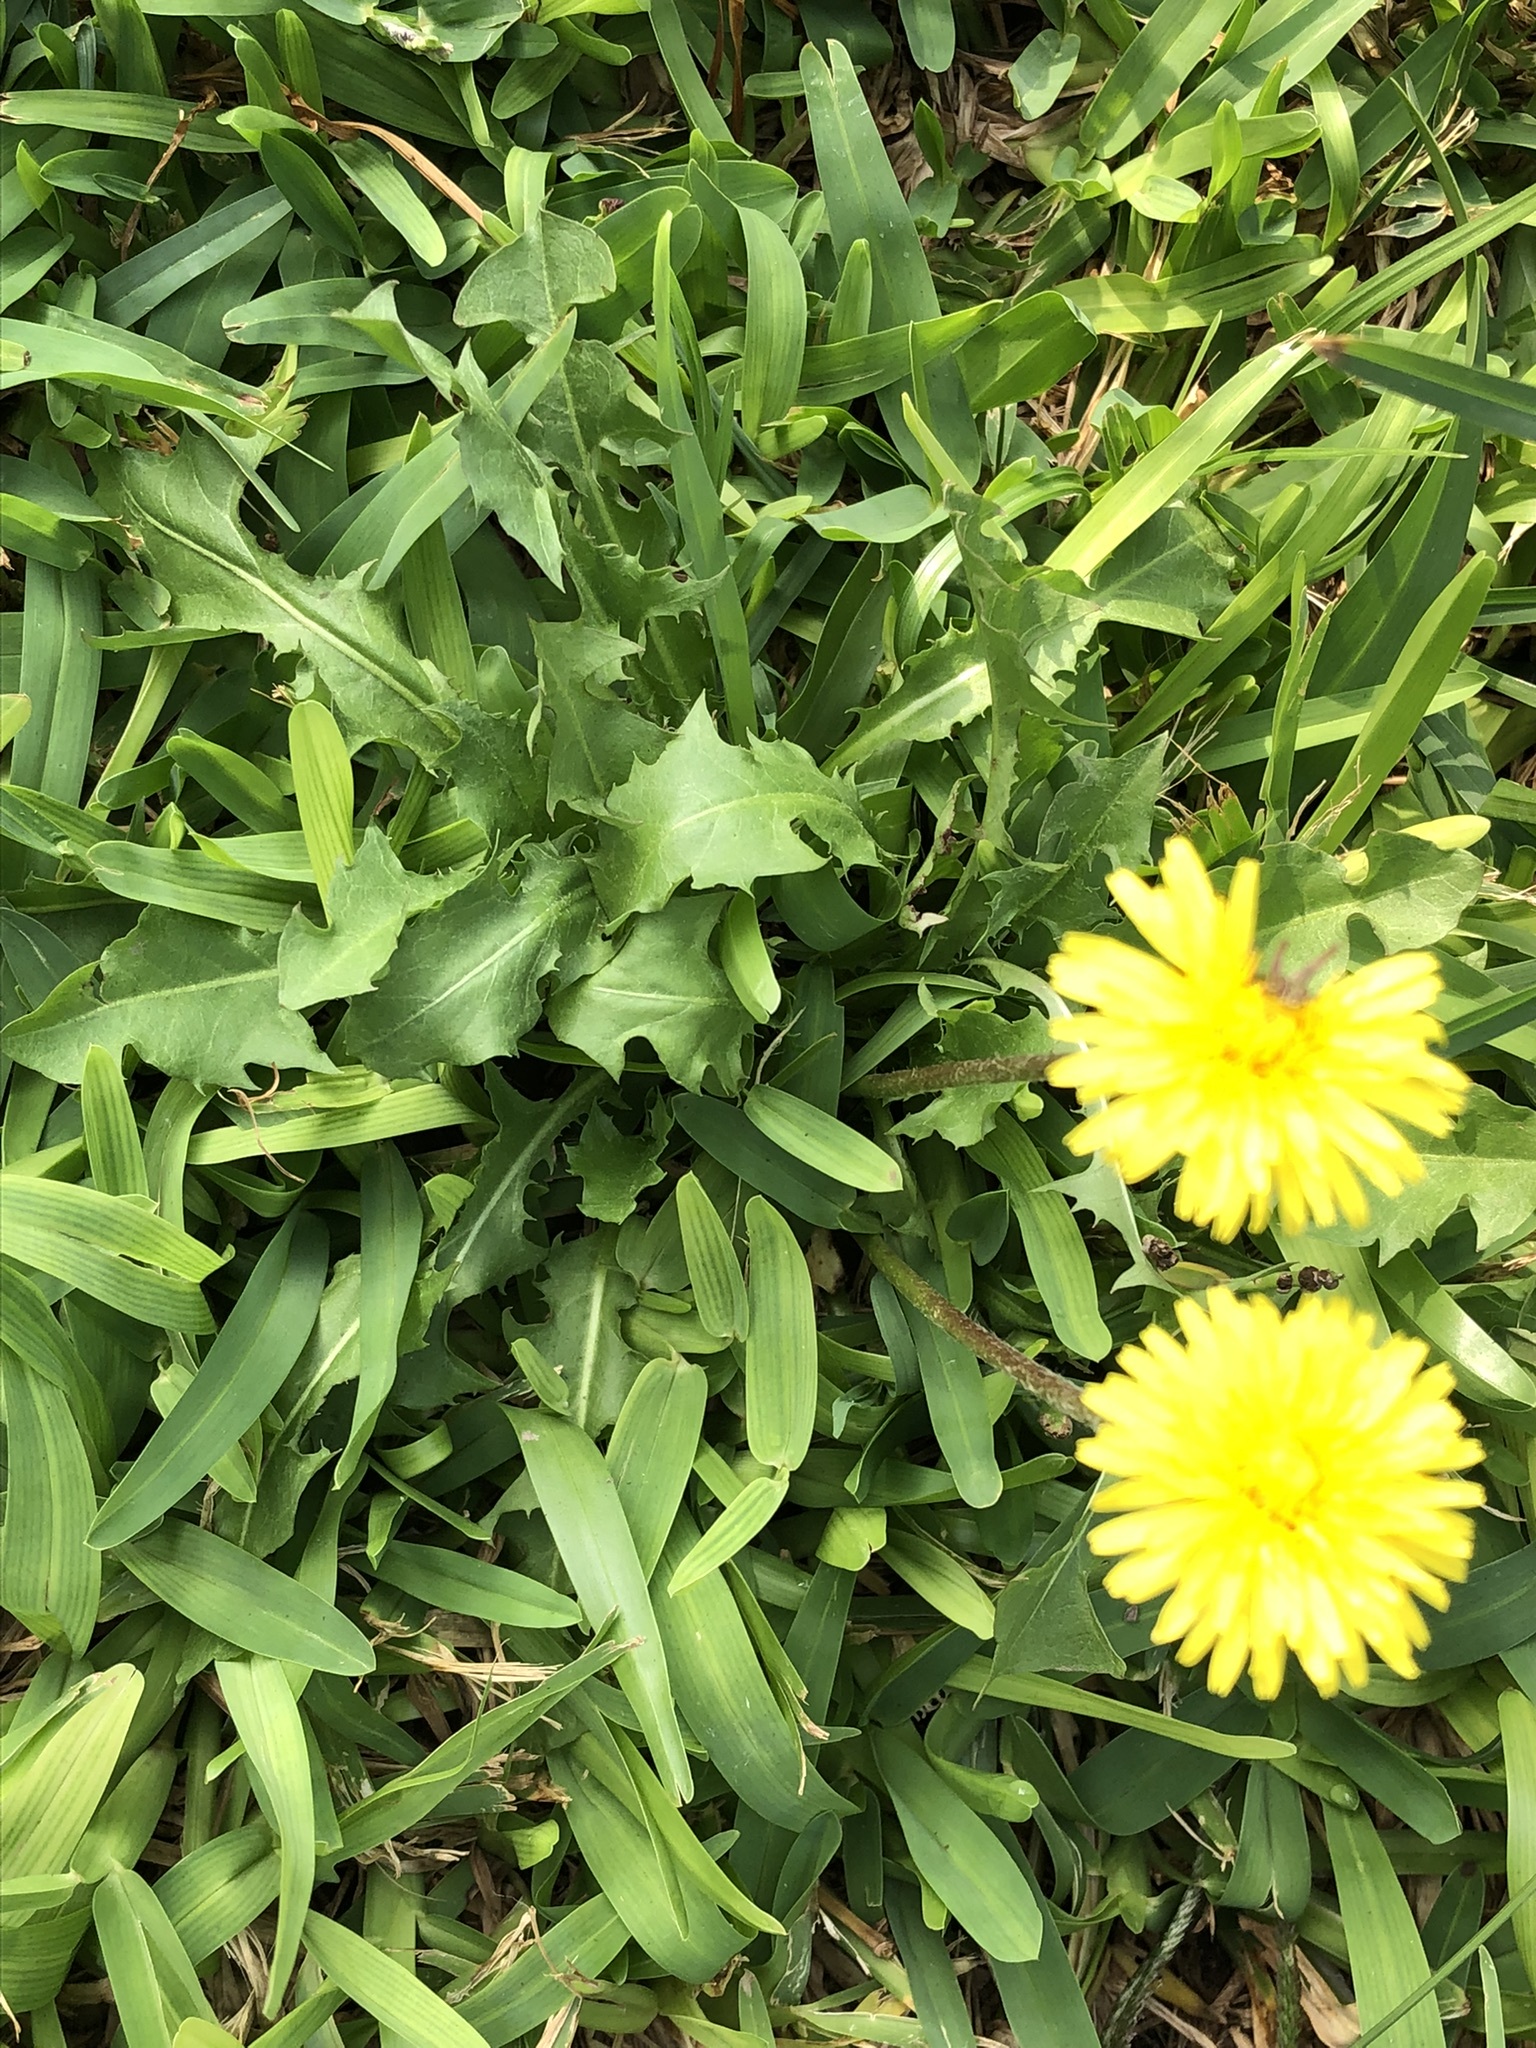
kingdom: Plantae
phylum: Tracheophyta
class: Magnoliopsida
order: Asterales
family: Asteraceae
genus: Taraxacum
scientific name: Taraxacum officinale
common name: Common dandelion
